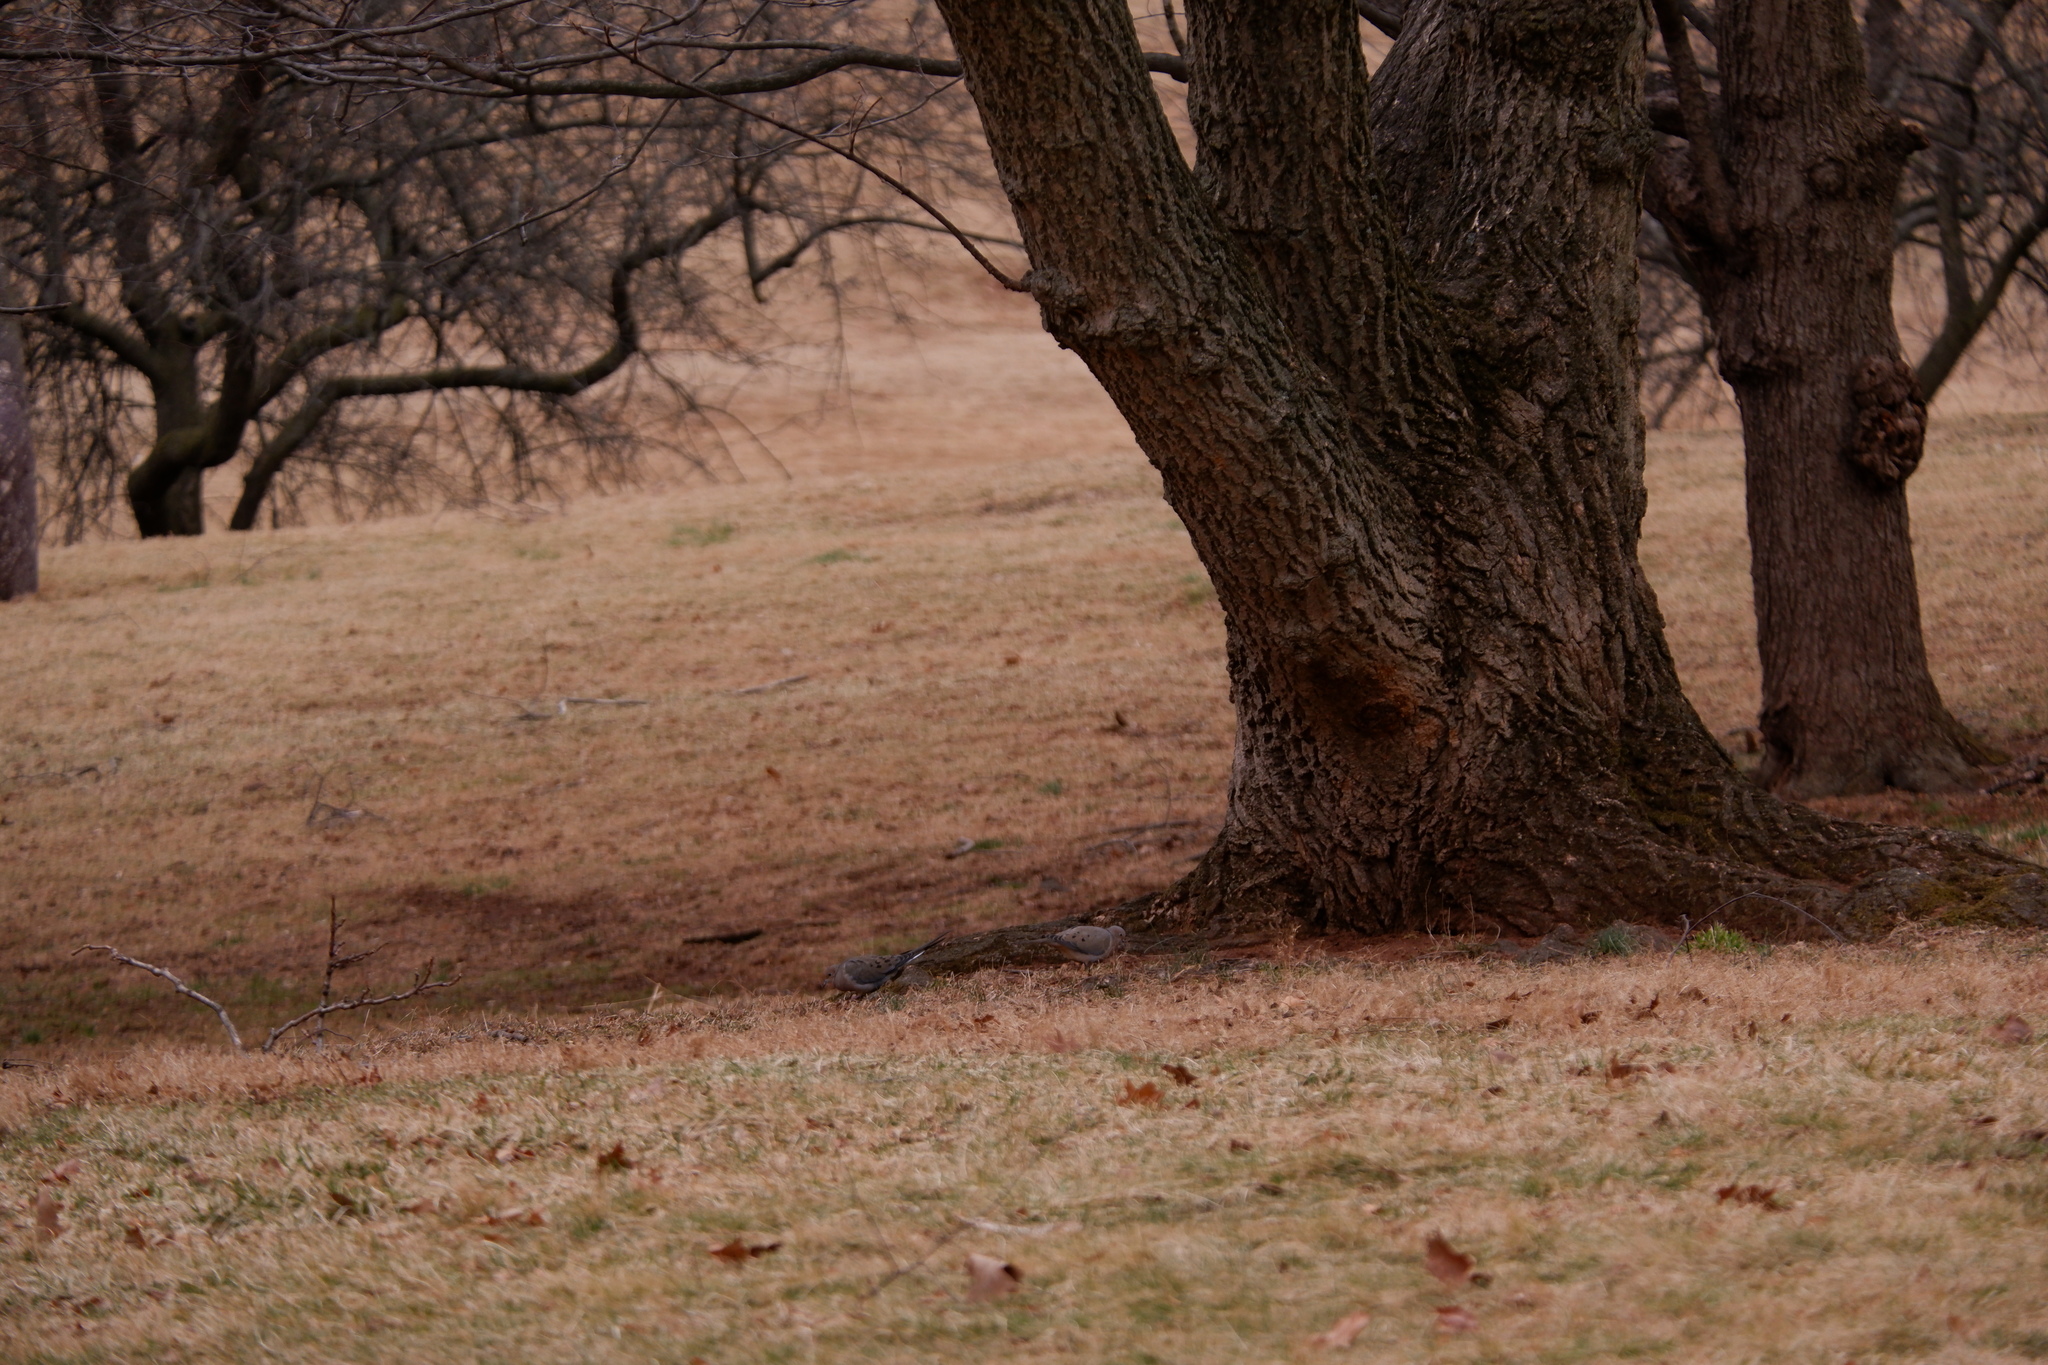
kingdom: Animalia
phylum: Chordata
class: Aves
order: Columbiformes
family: Columbidae
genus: Zenaida
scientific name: Zenaida macroura
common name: Mourning dove
